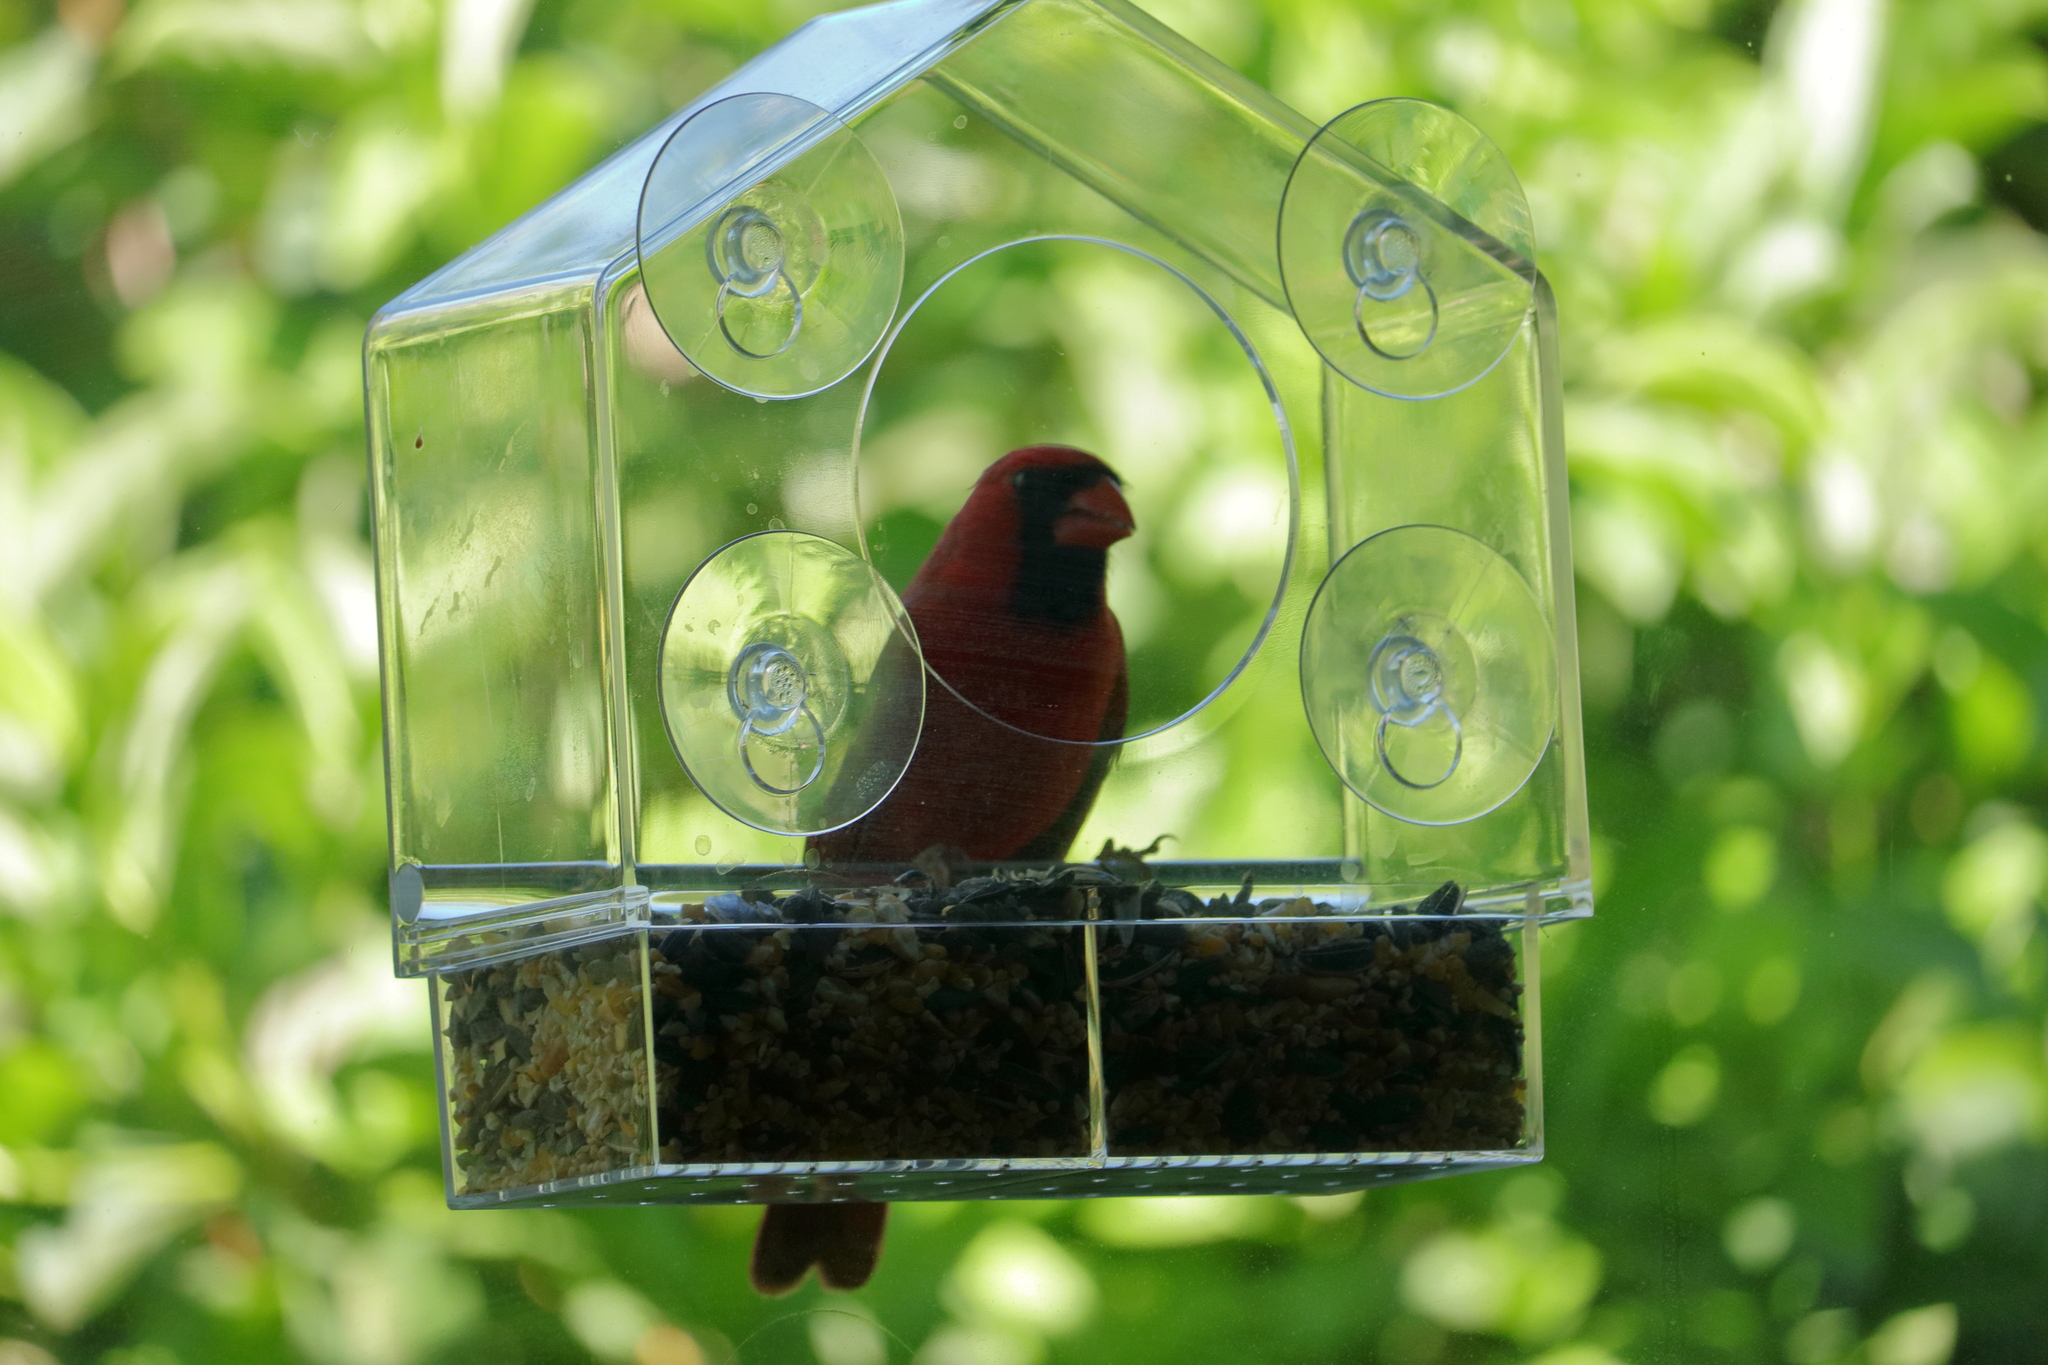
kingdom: Animalia
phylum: Chordata
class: Aves
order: Passeriformes
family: Cardinalidae
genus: Cardinalis
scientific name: Cardinalis cardinalis
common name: Northern cardinal
